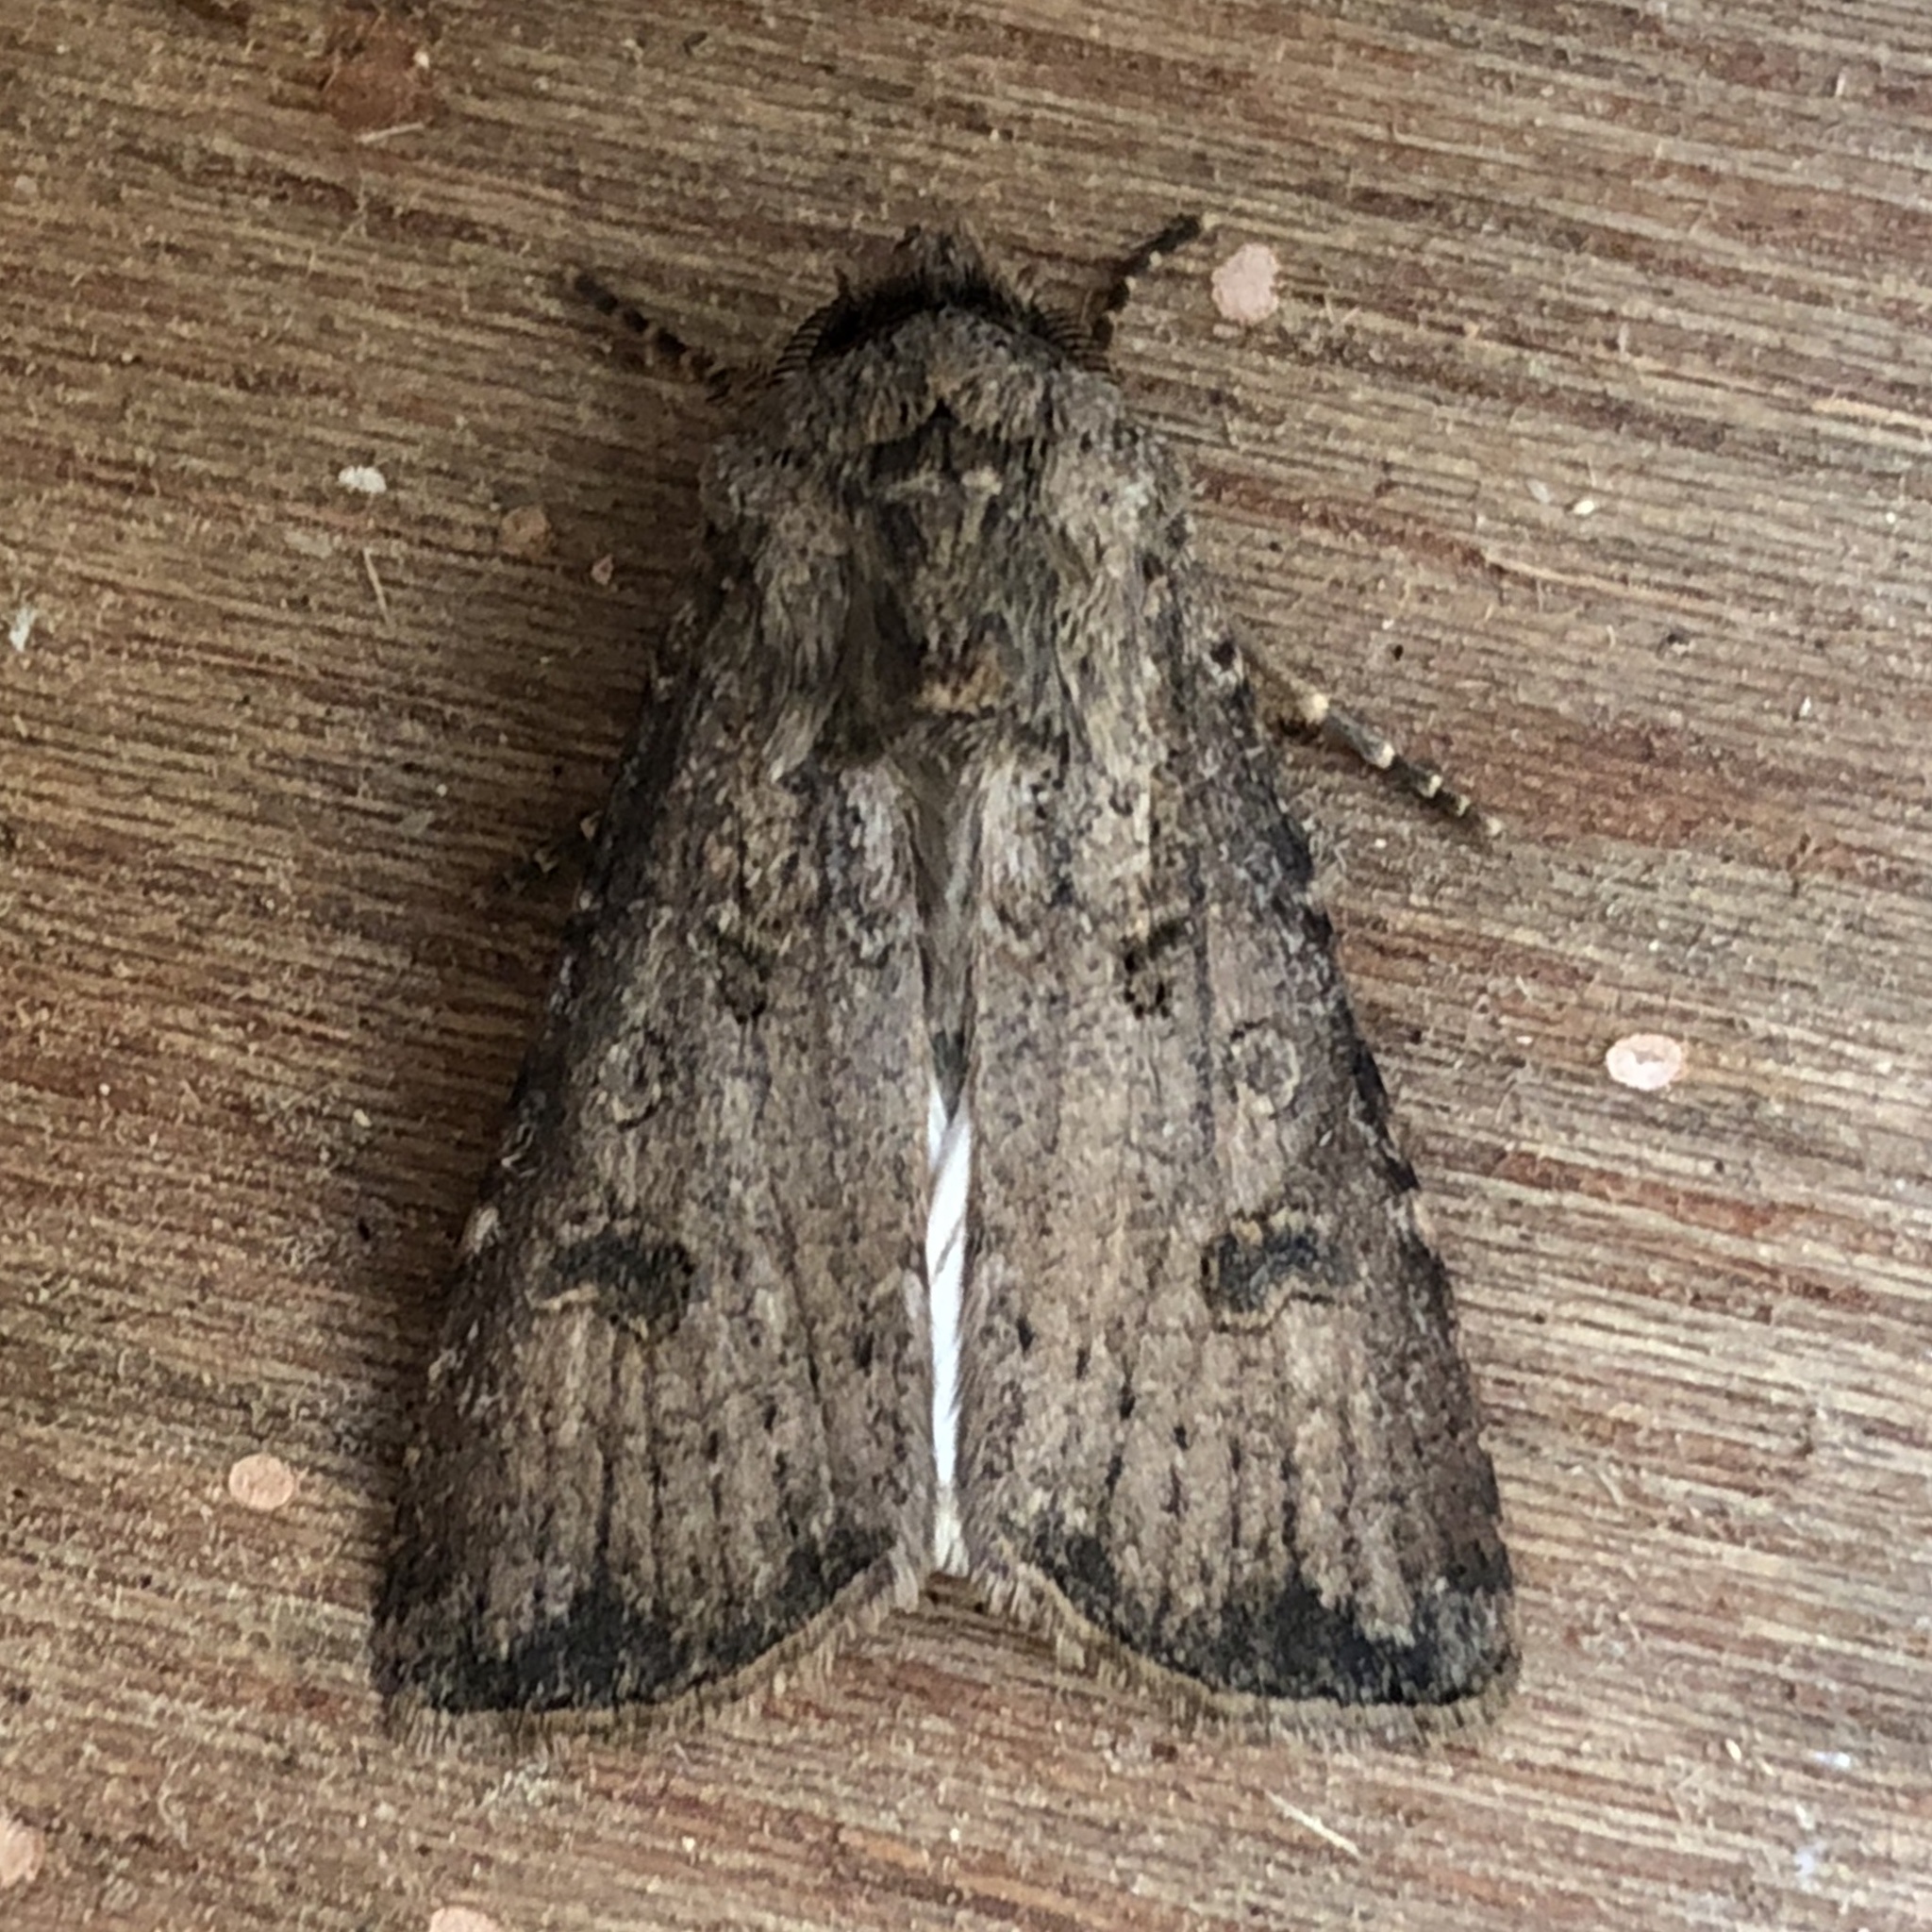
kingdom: Animalia
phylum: Arthropoda
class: Insecta
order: Lepidoptera
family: Noctuidae
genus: Agrotis
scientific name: Agrotis segetum
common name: Turnip moth
